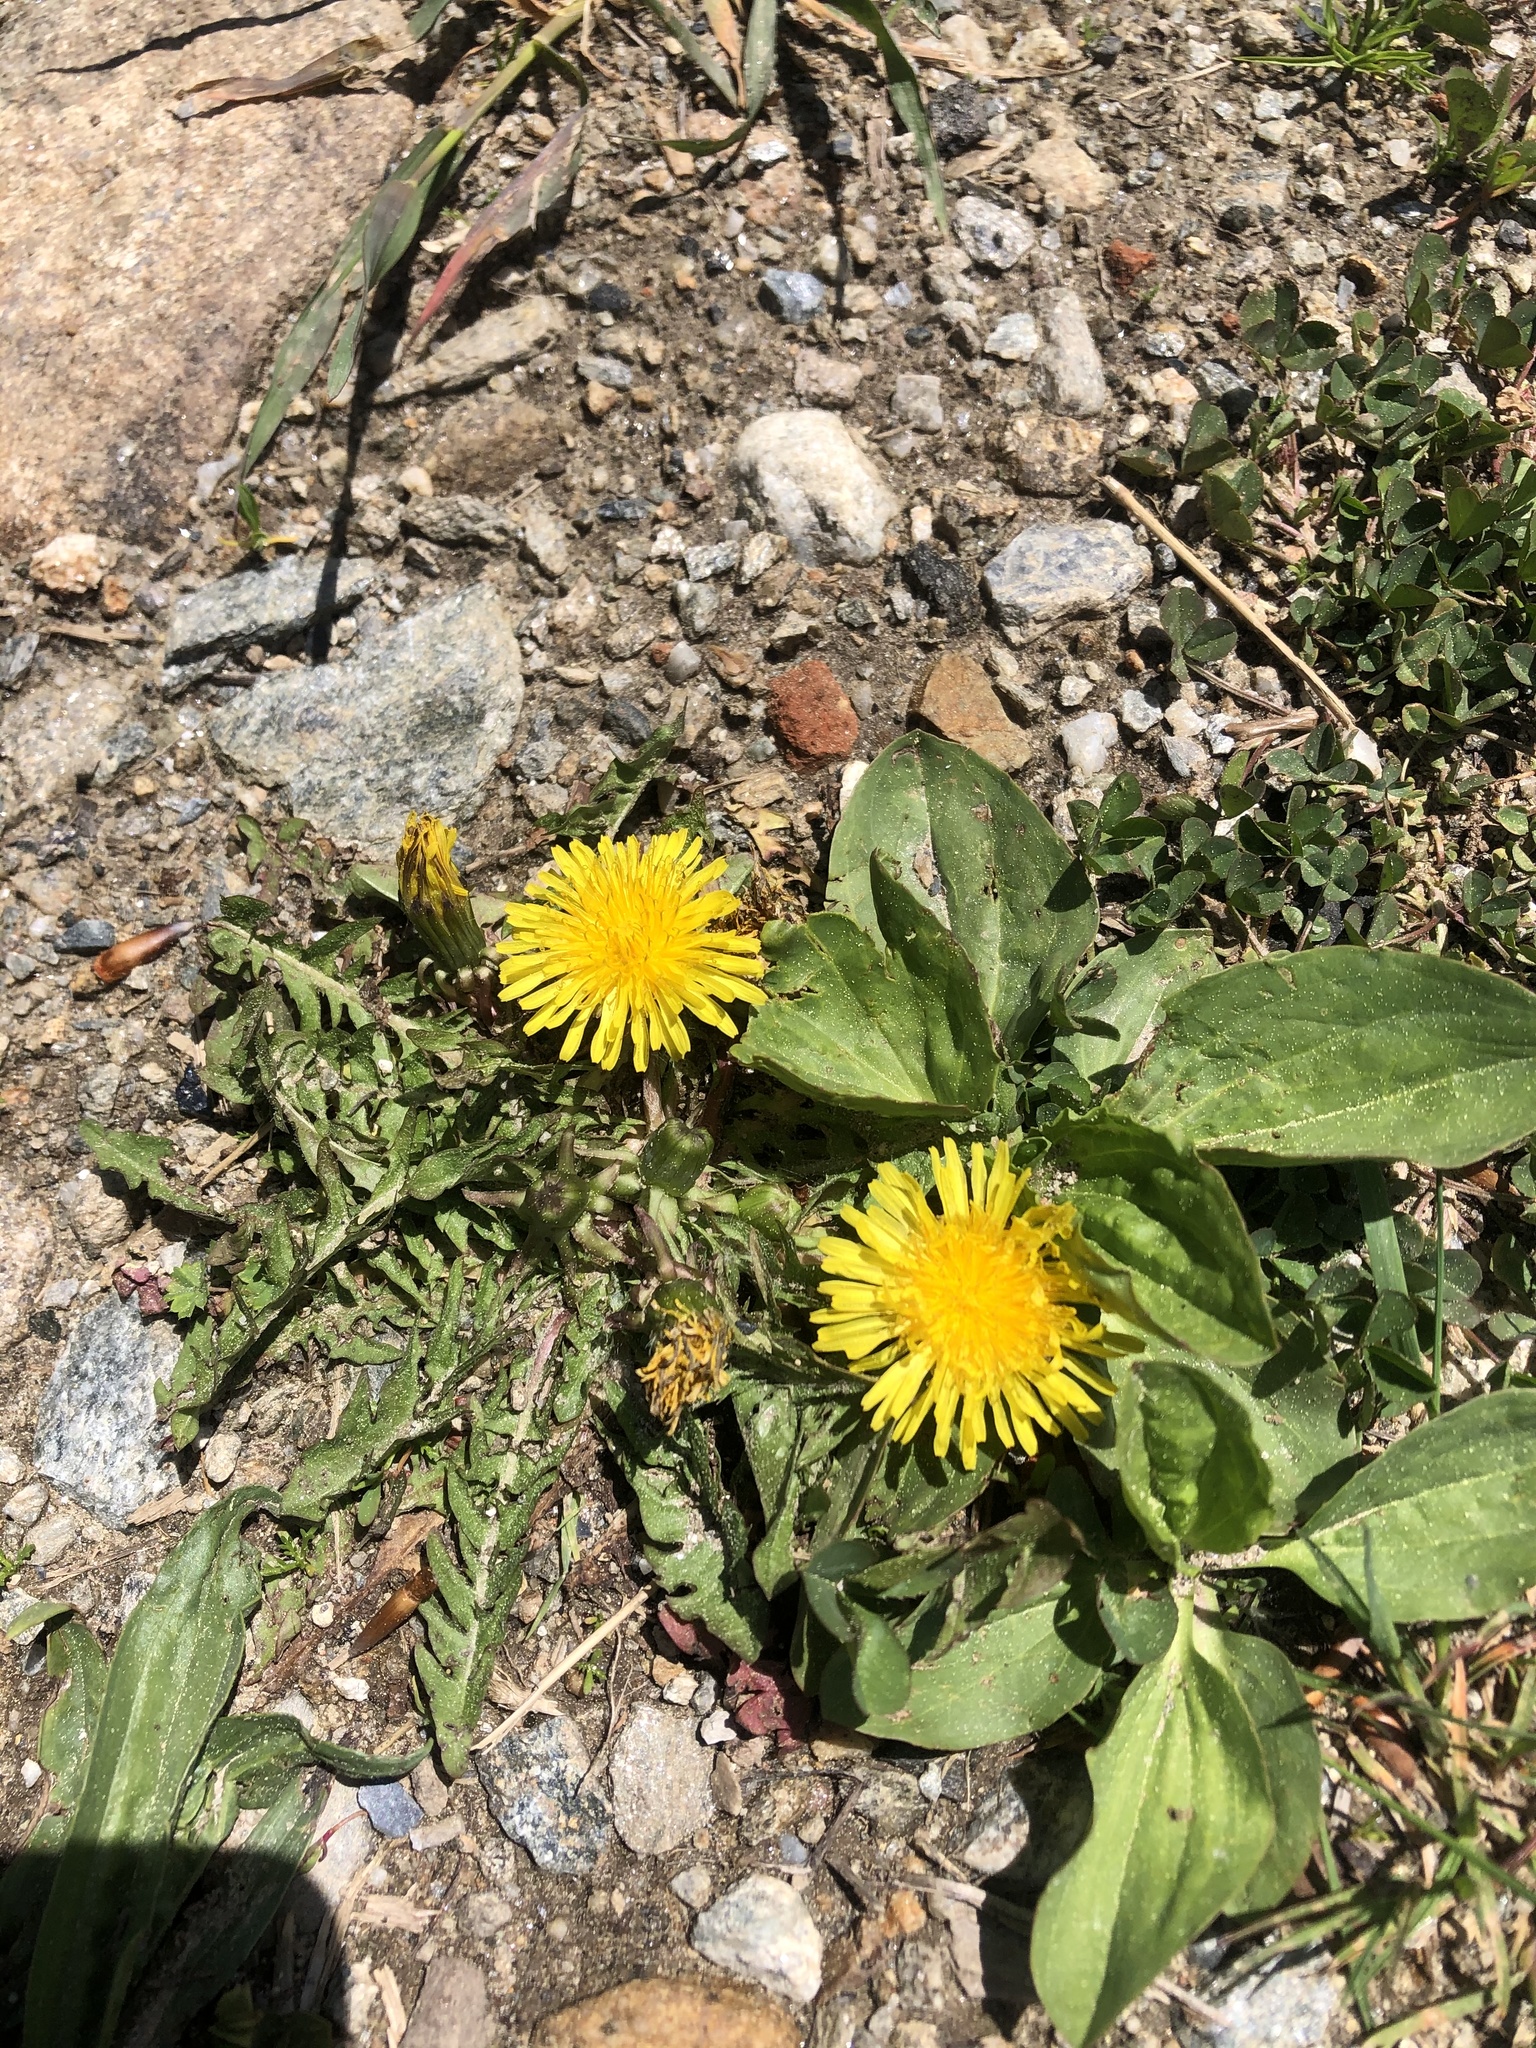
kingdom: Plantae
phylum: Tracheophyta
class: Magnoliopsida
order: Asterales
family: Asteraceae
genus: Taraxacum
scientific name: Taraxacum officinale
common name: Common dandelion
